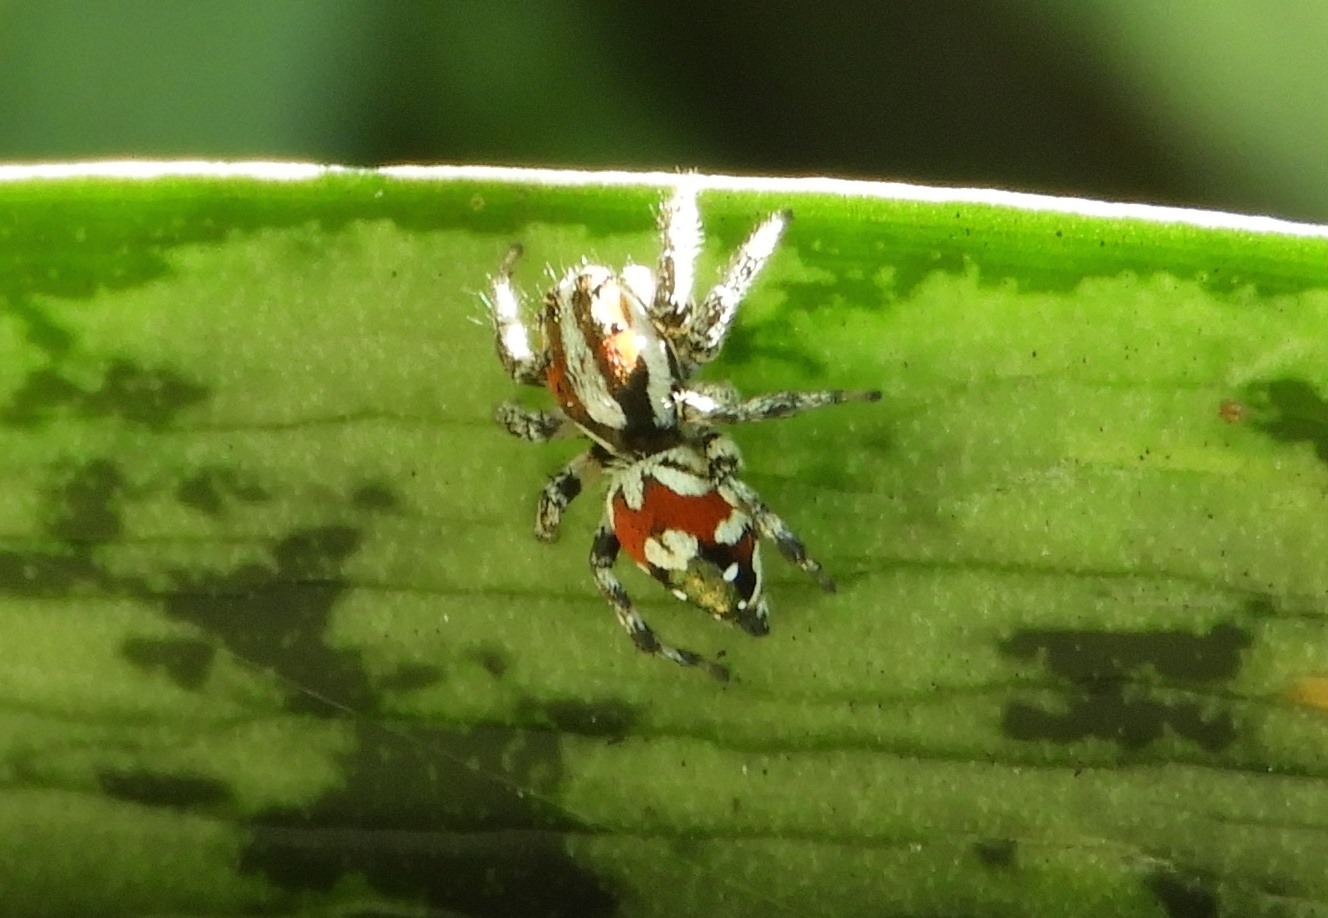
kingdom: Animalia
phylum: Arthropoda
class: Arachnida
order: Araneae
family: Salticidae
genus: Nycerella
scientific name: Nycerella delecta
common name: Jumping spiders
